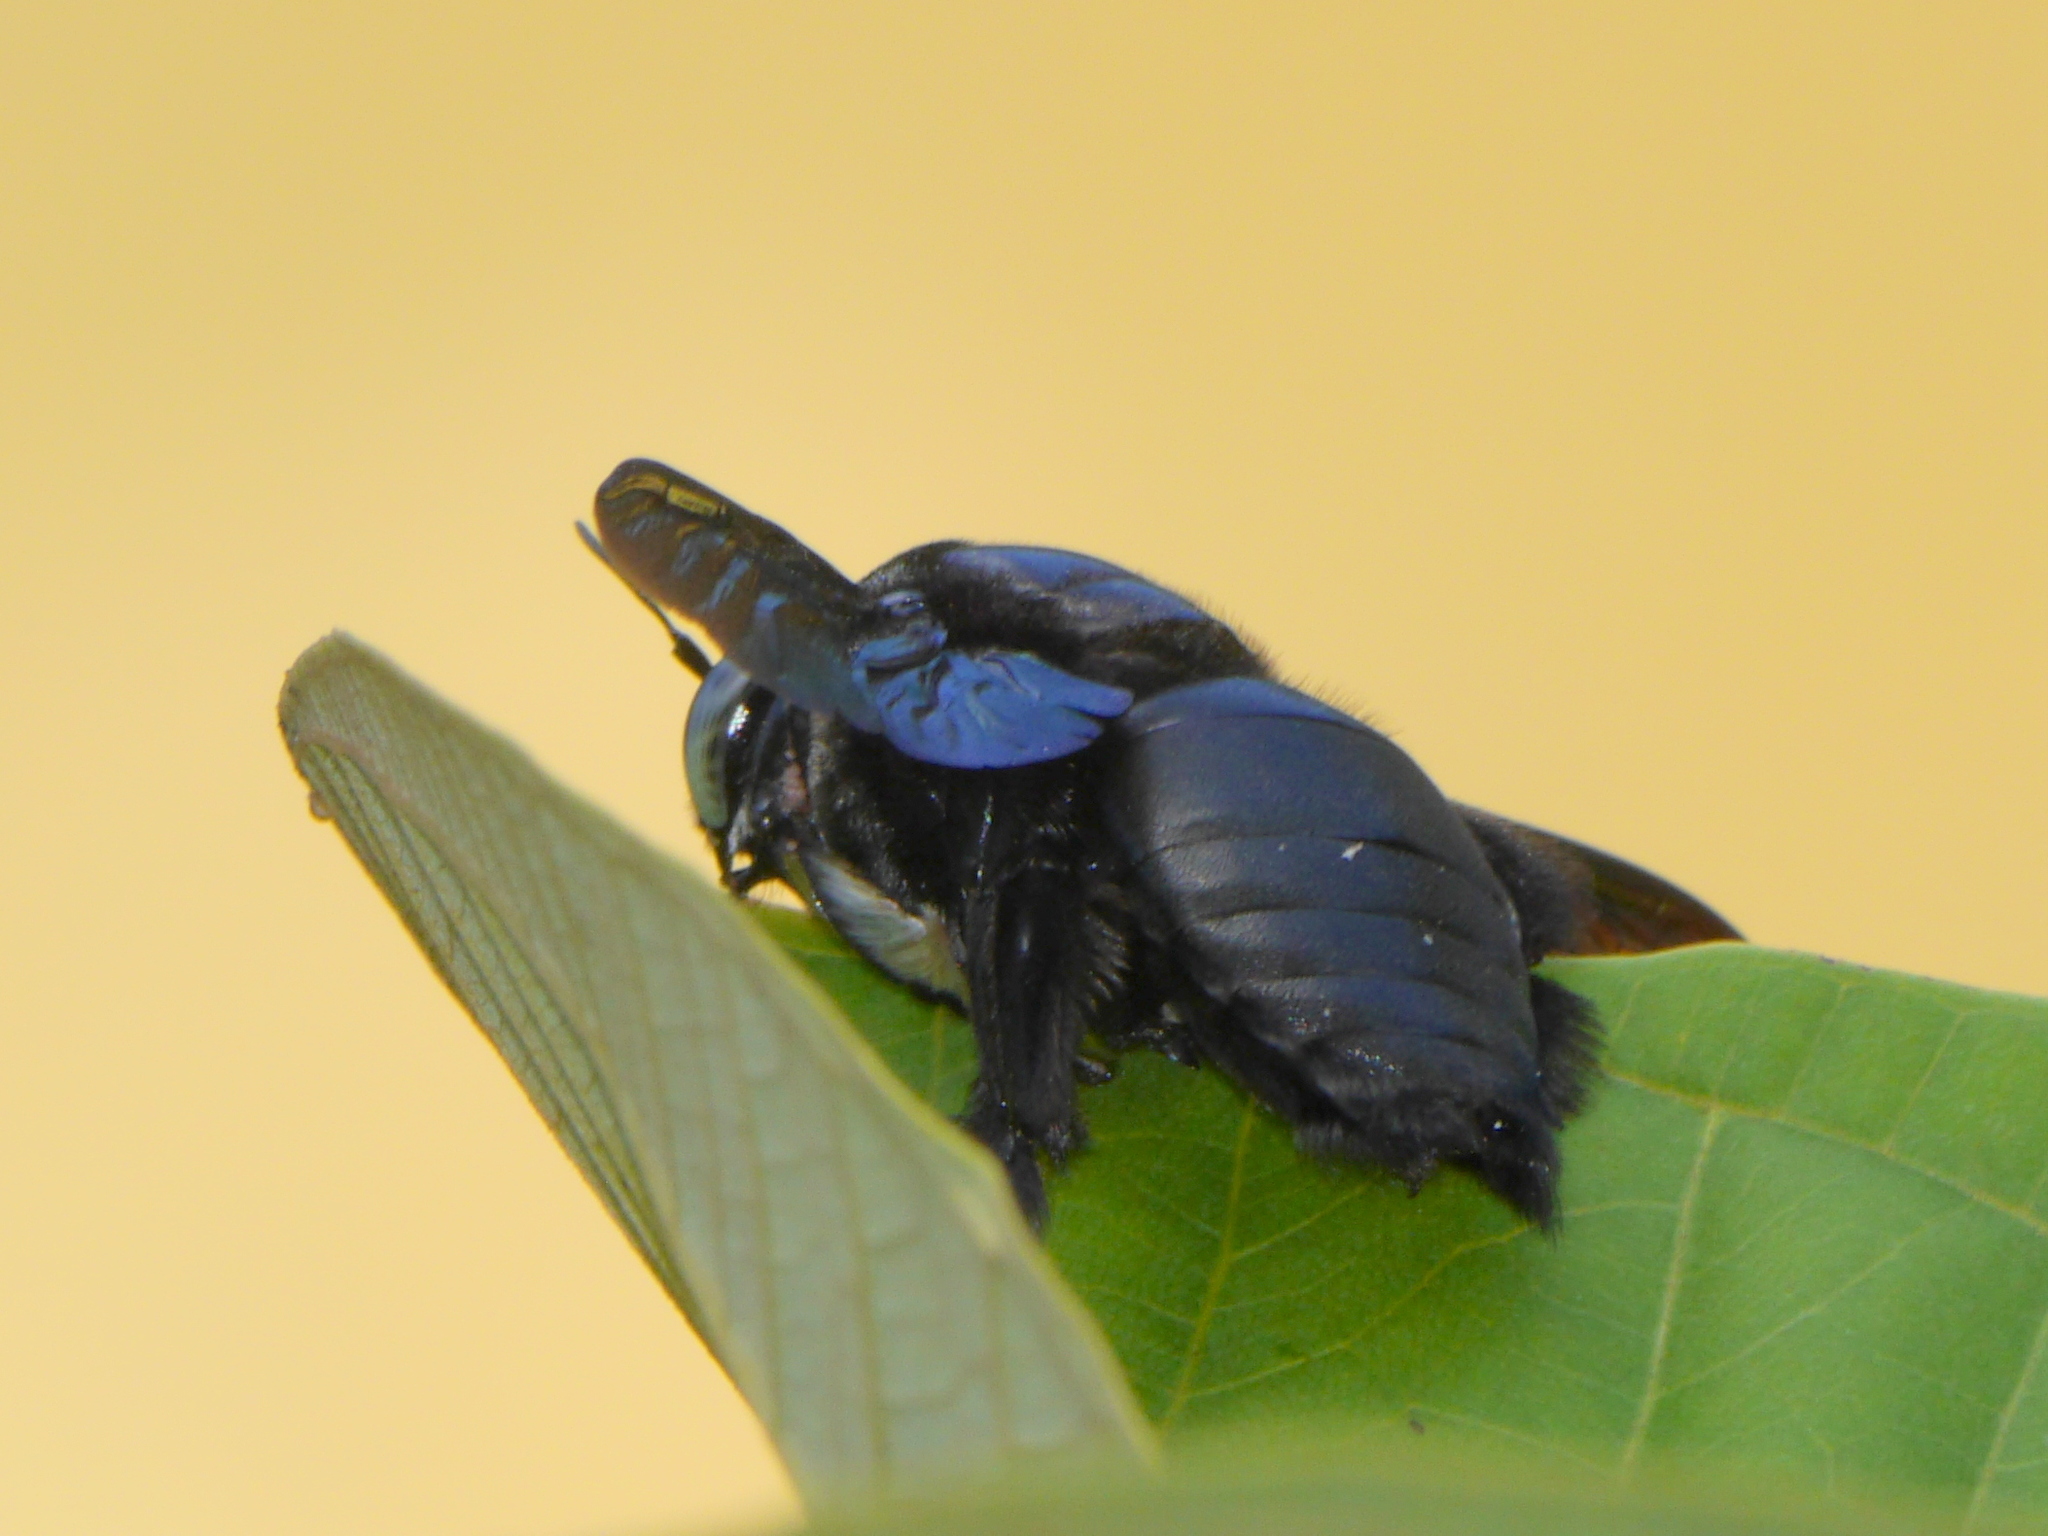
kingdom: Animalia
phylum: Arthropoda
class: Insecta
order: Hymenoptera
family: Apidae
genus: Xylocopa
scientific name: Xylocopa latipes
